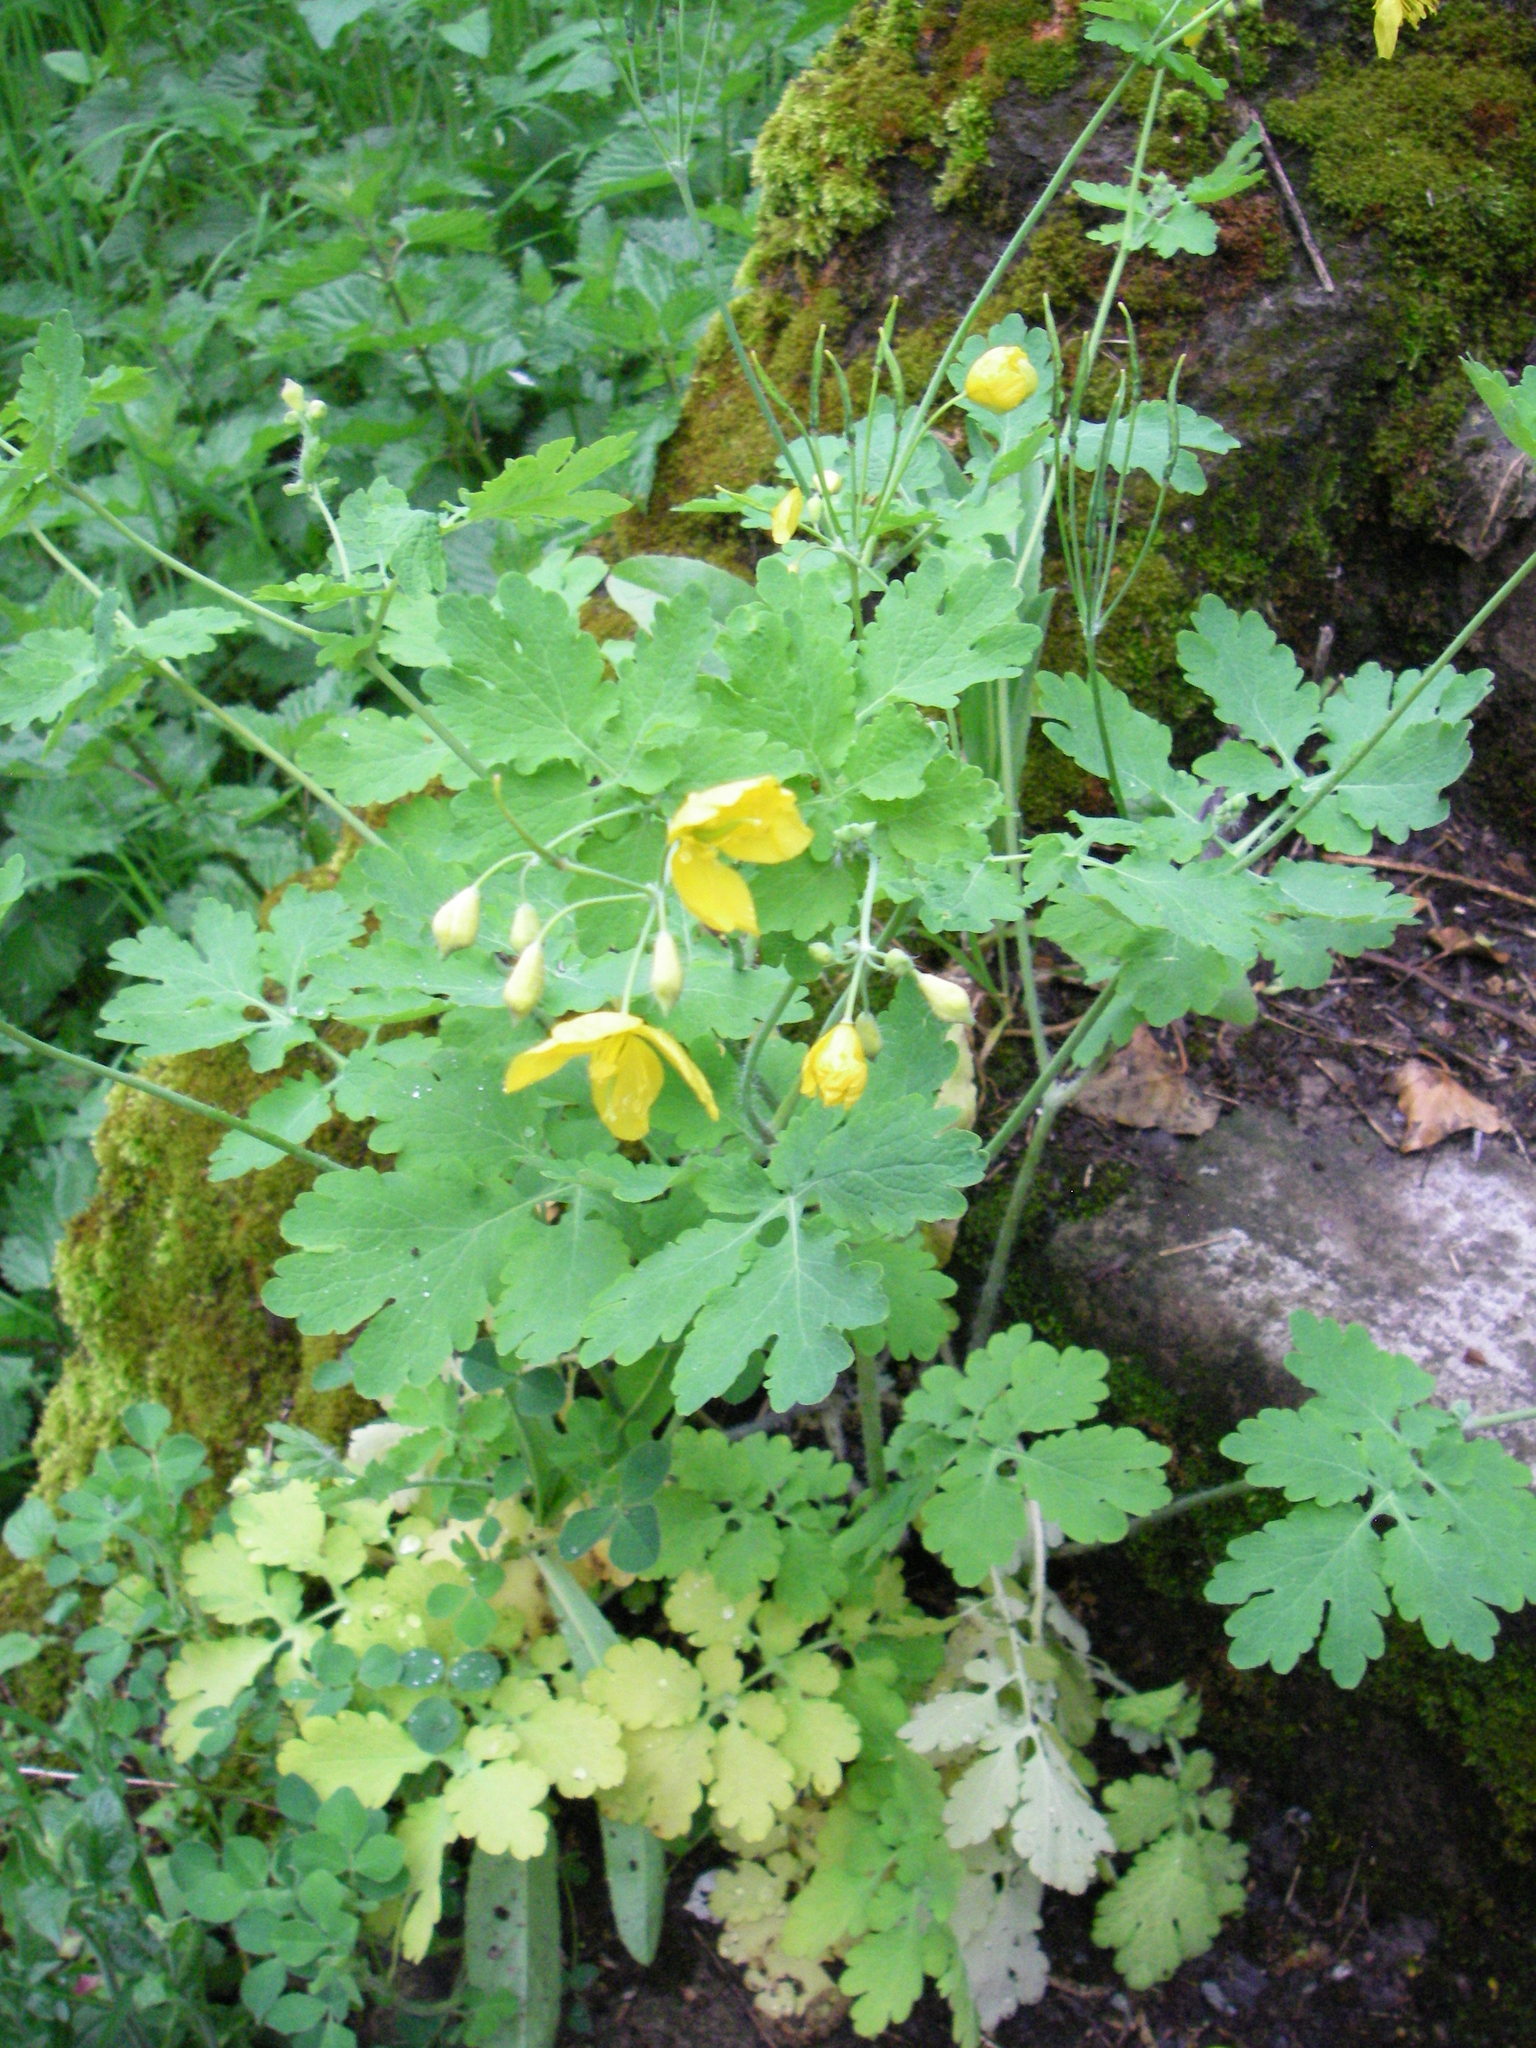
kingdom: Plantae
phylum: Tracheophyta
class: Magnoliopsida
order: Ranunculales
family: Papaveraceae
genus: Chelidonium
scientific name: Chelidonium majus
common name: Greater celandine
